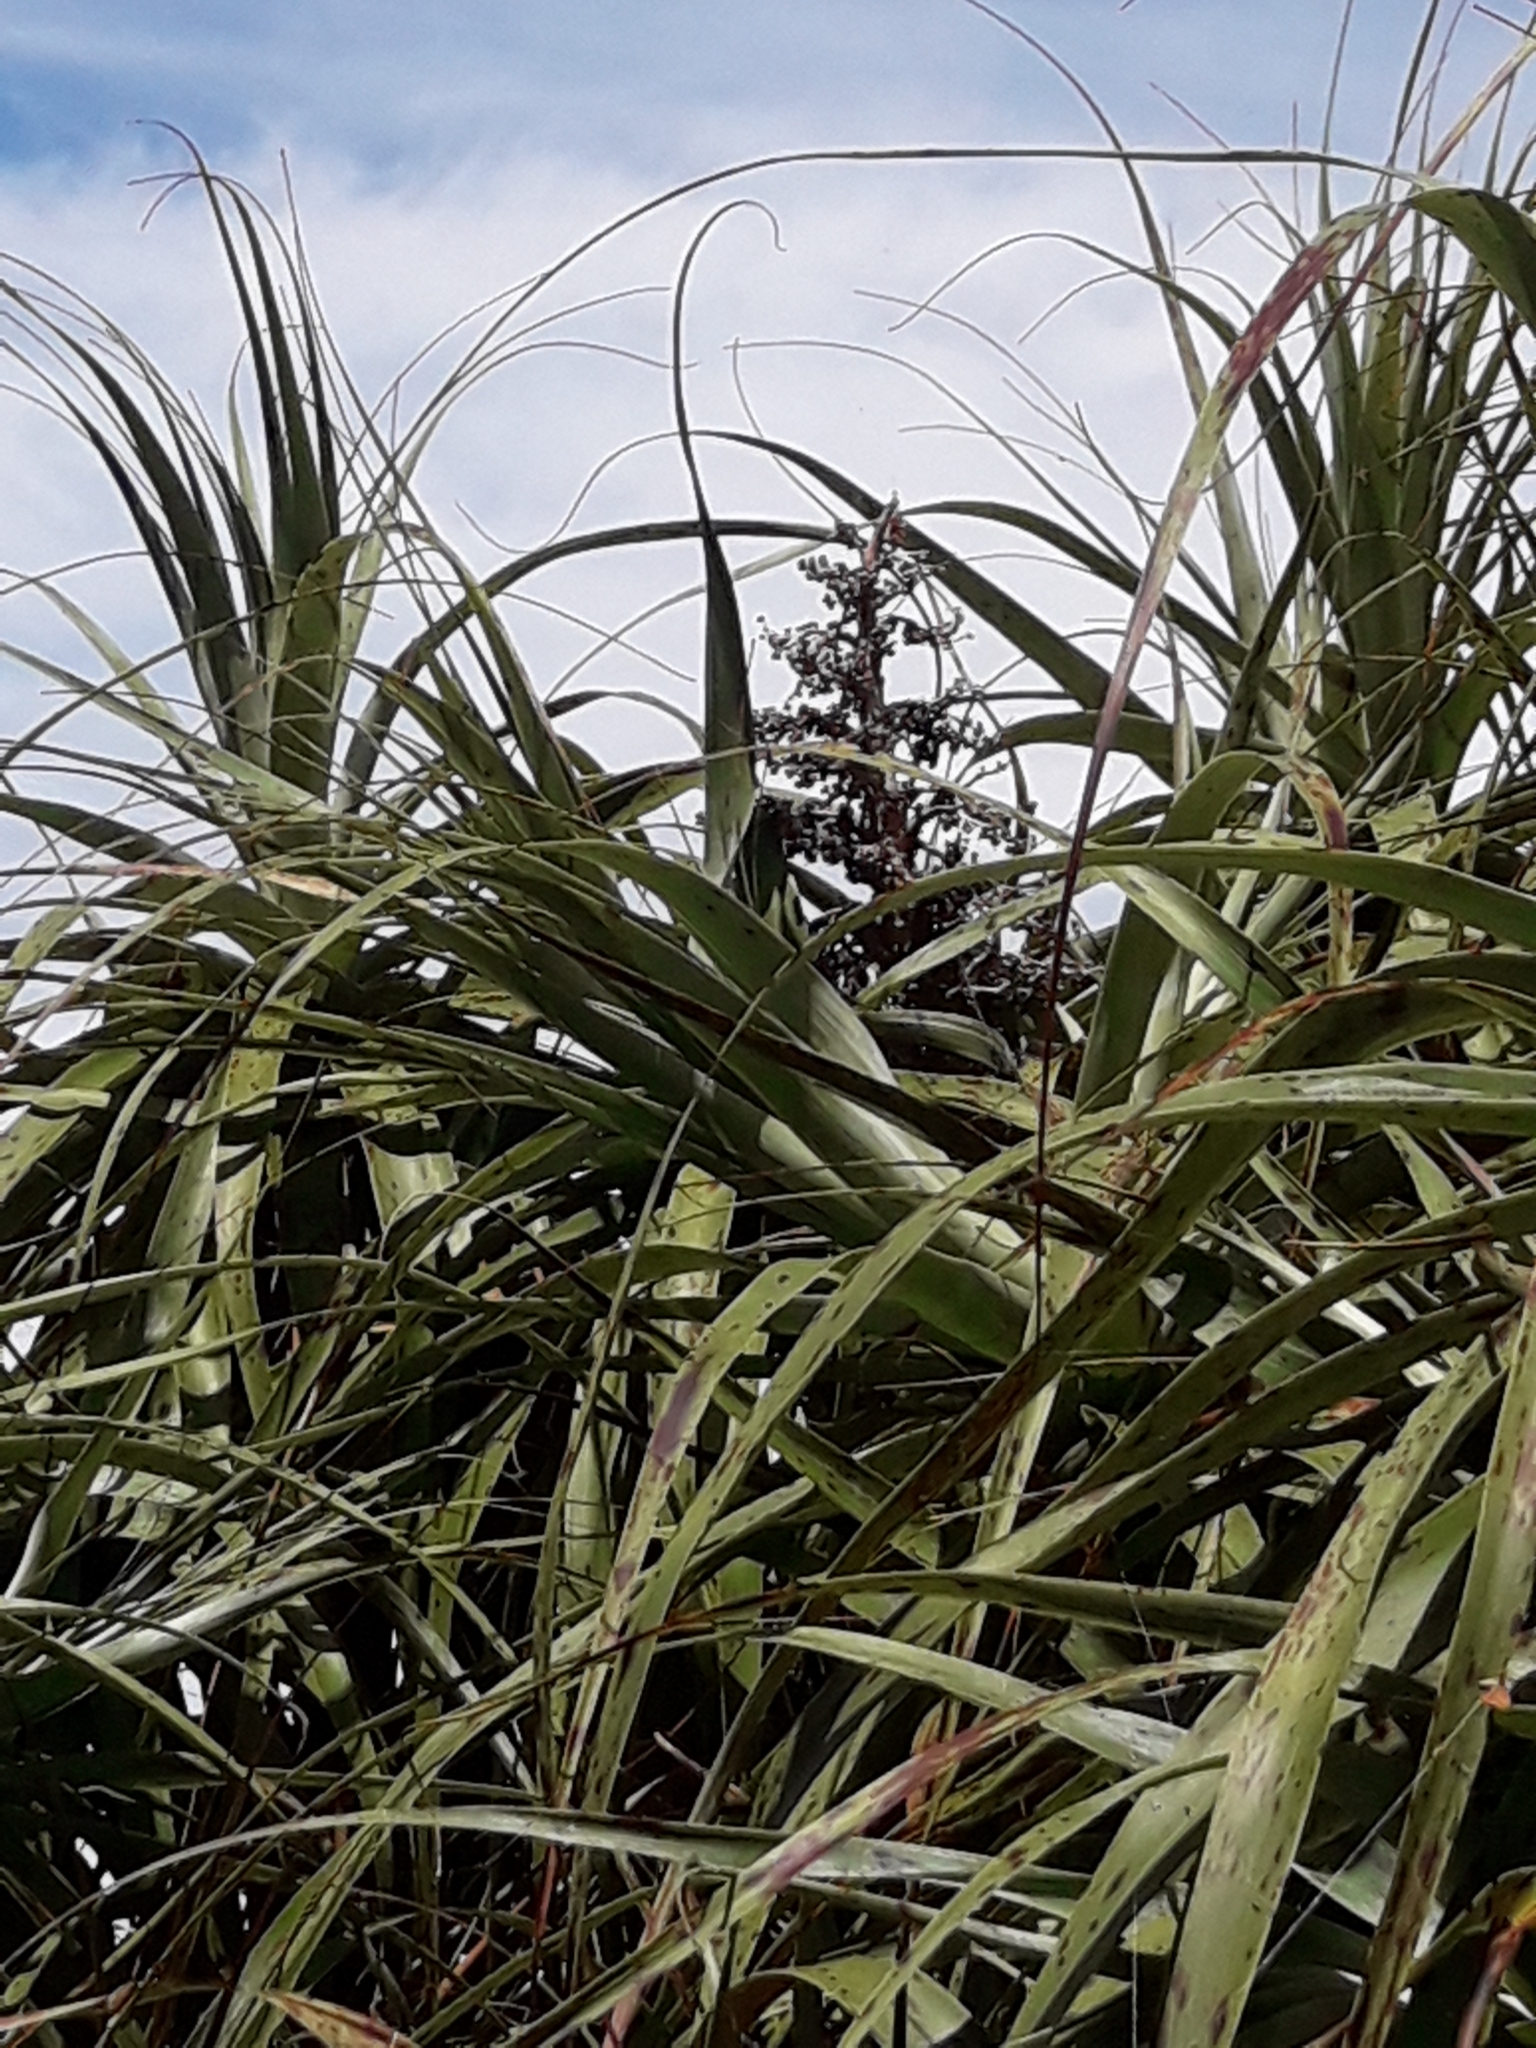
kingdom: Plantae
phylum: Tracheophyta
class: Magnoliopsida
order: Ericales
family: Ericaceae
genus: Dracophyllum
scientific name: Dracophyllum traversii
